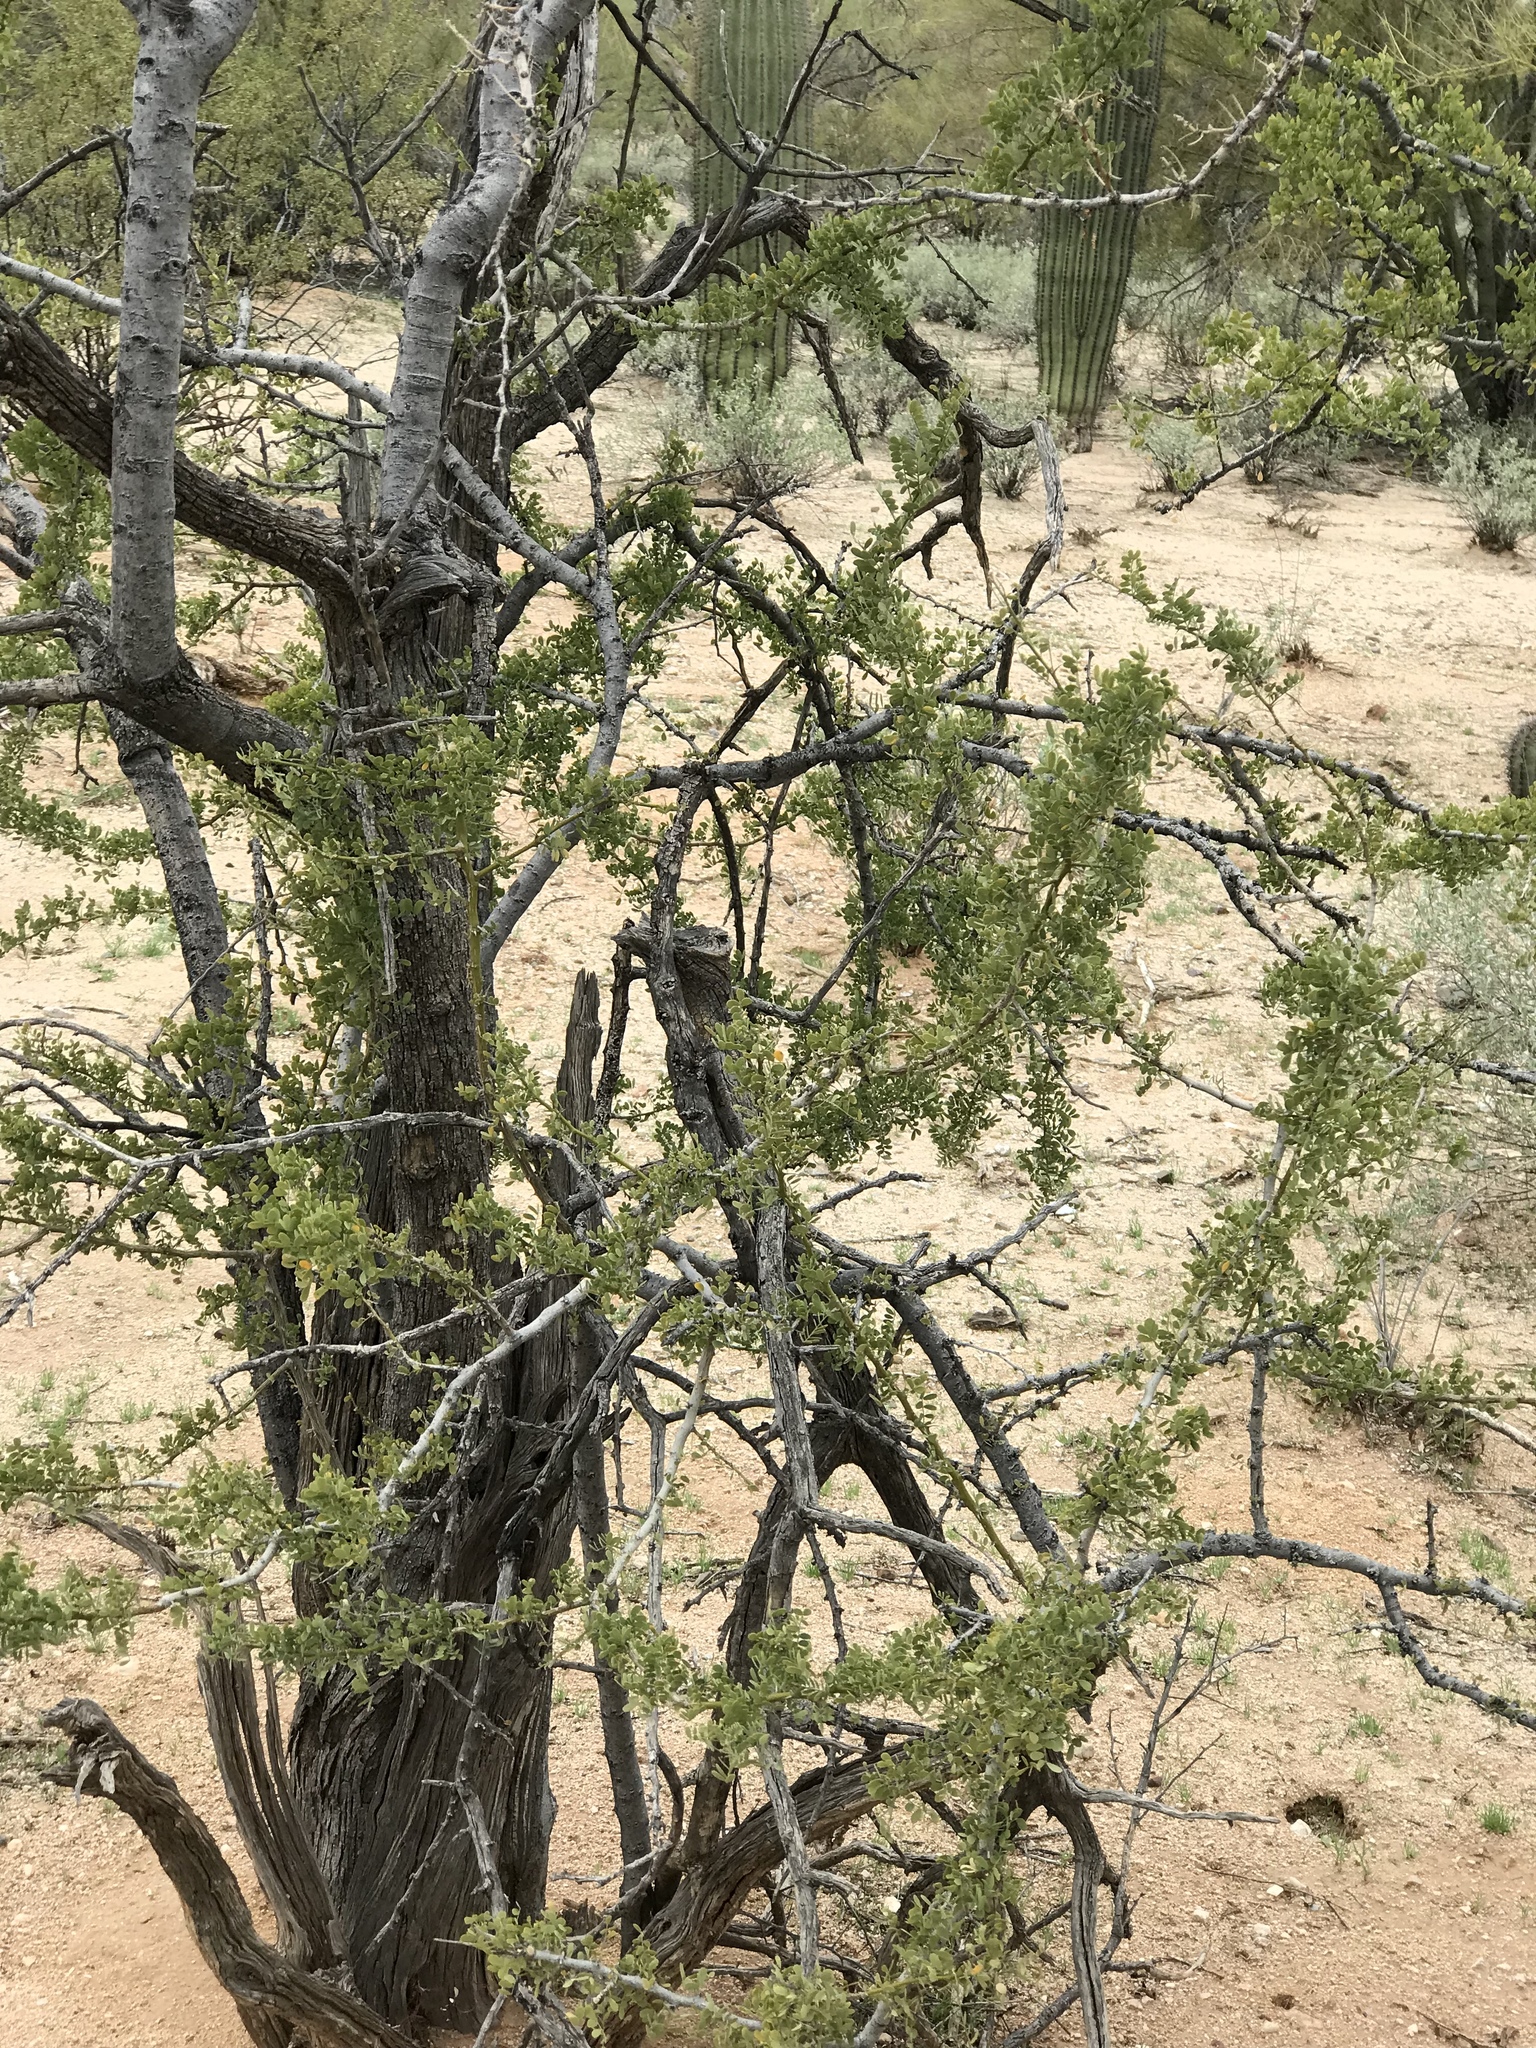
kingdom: Plantae
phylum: Tracheophyta
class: Magnoliopsida
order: Fabales
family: Fabaceae
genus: Olneya
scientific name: Olneya tesota
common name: Desert ironwood
